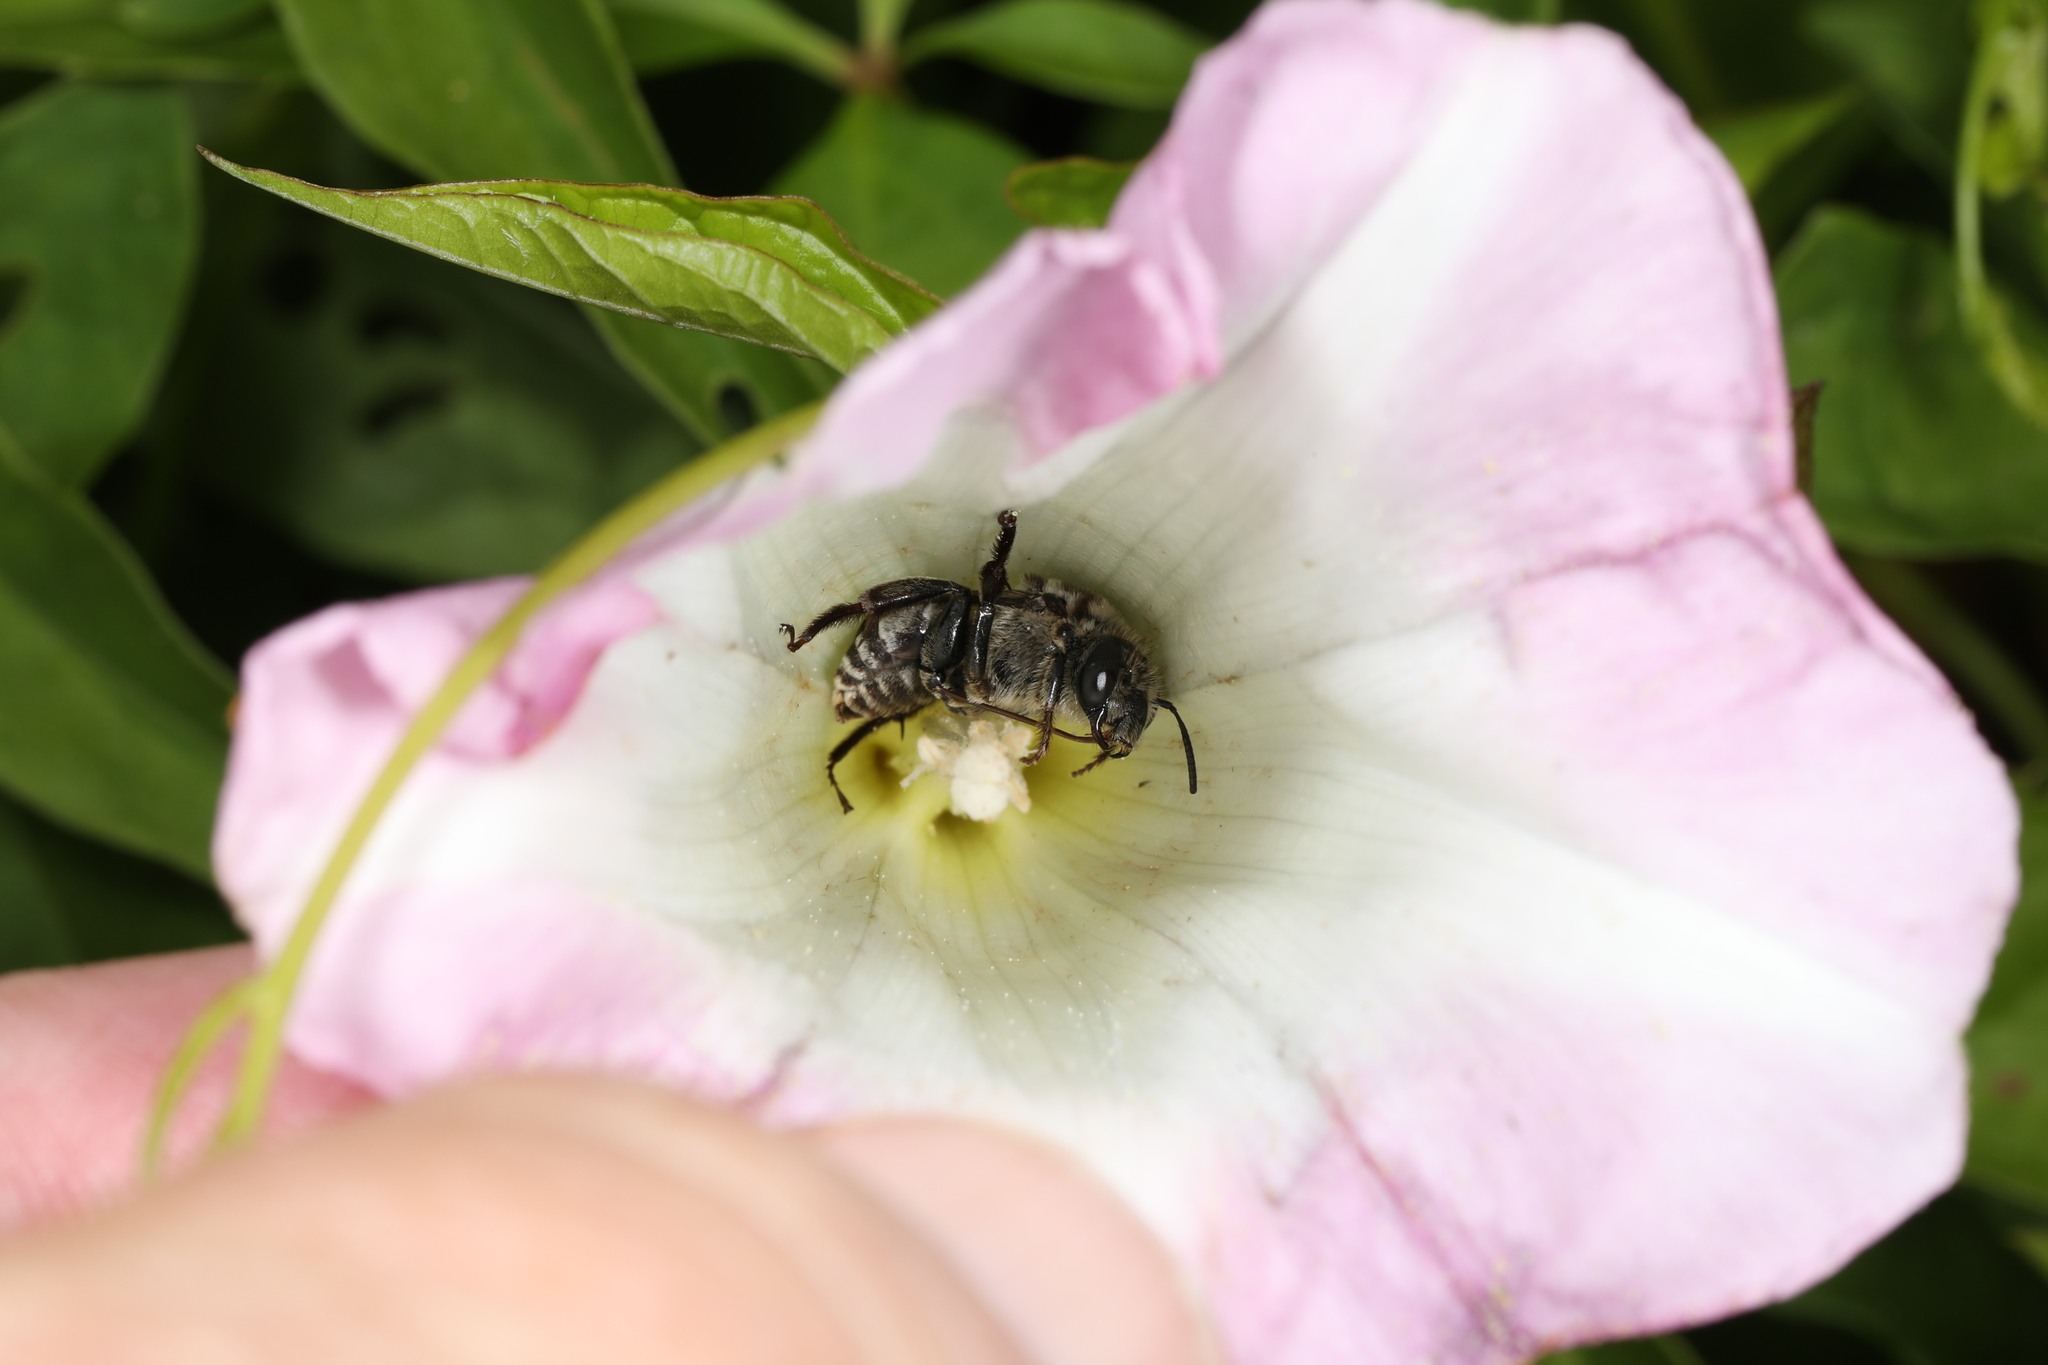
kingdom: Animalia
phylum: Arthropoda
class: Insecta
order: Hymenoptera
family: Apidae
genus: Melitoma
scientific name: Melitoma taurea
